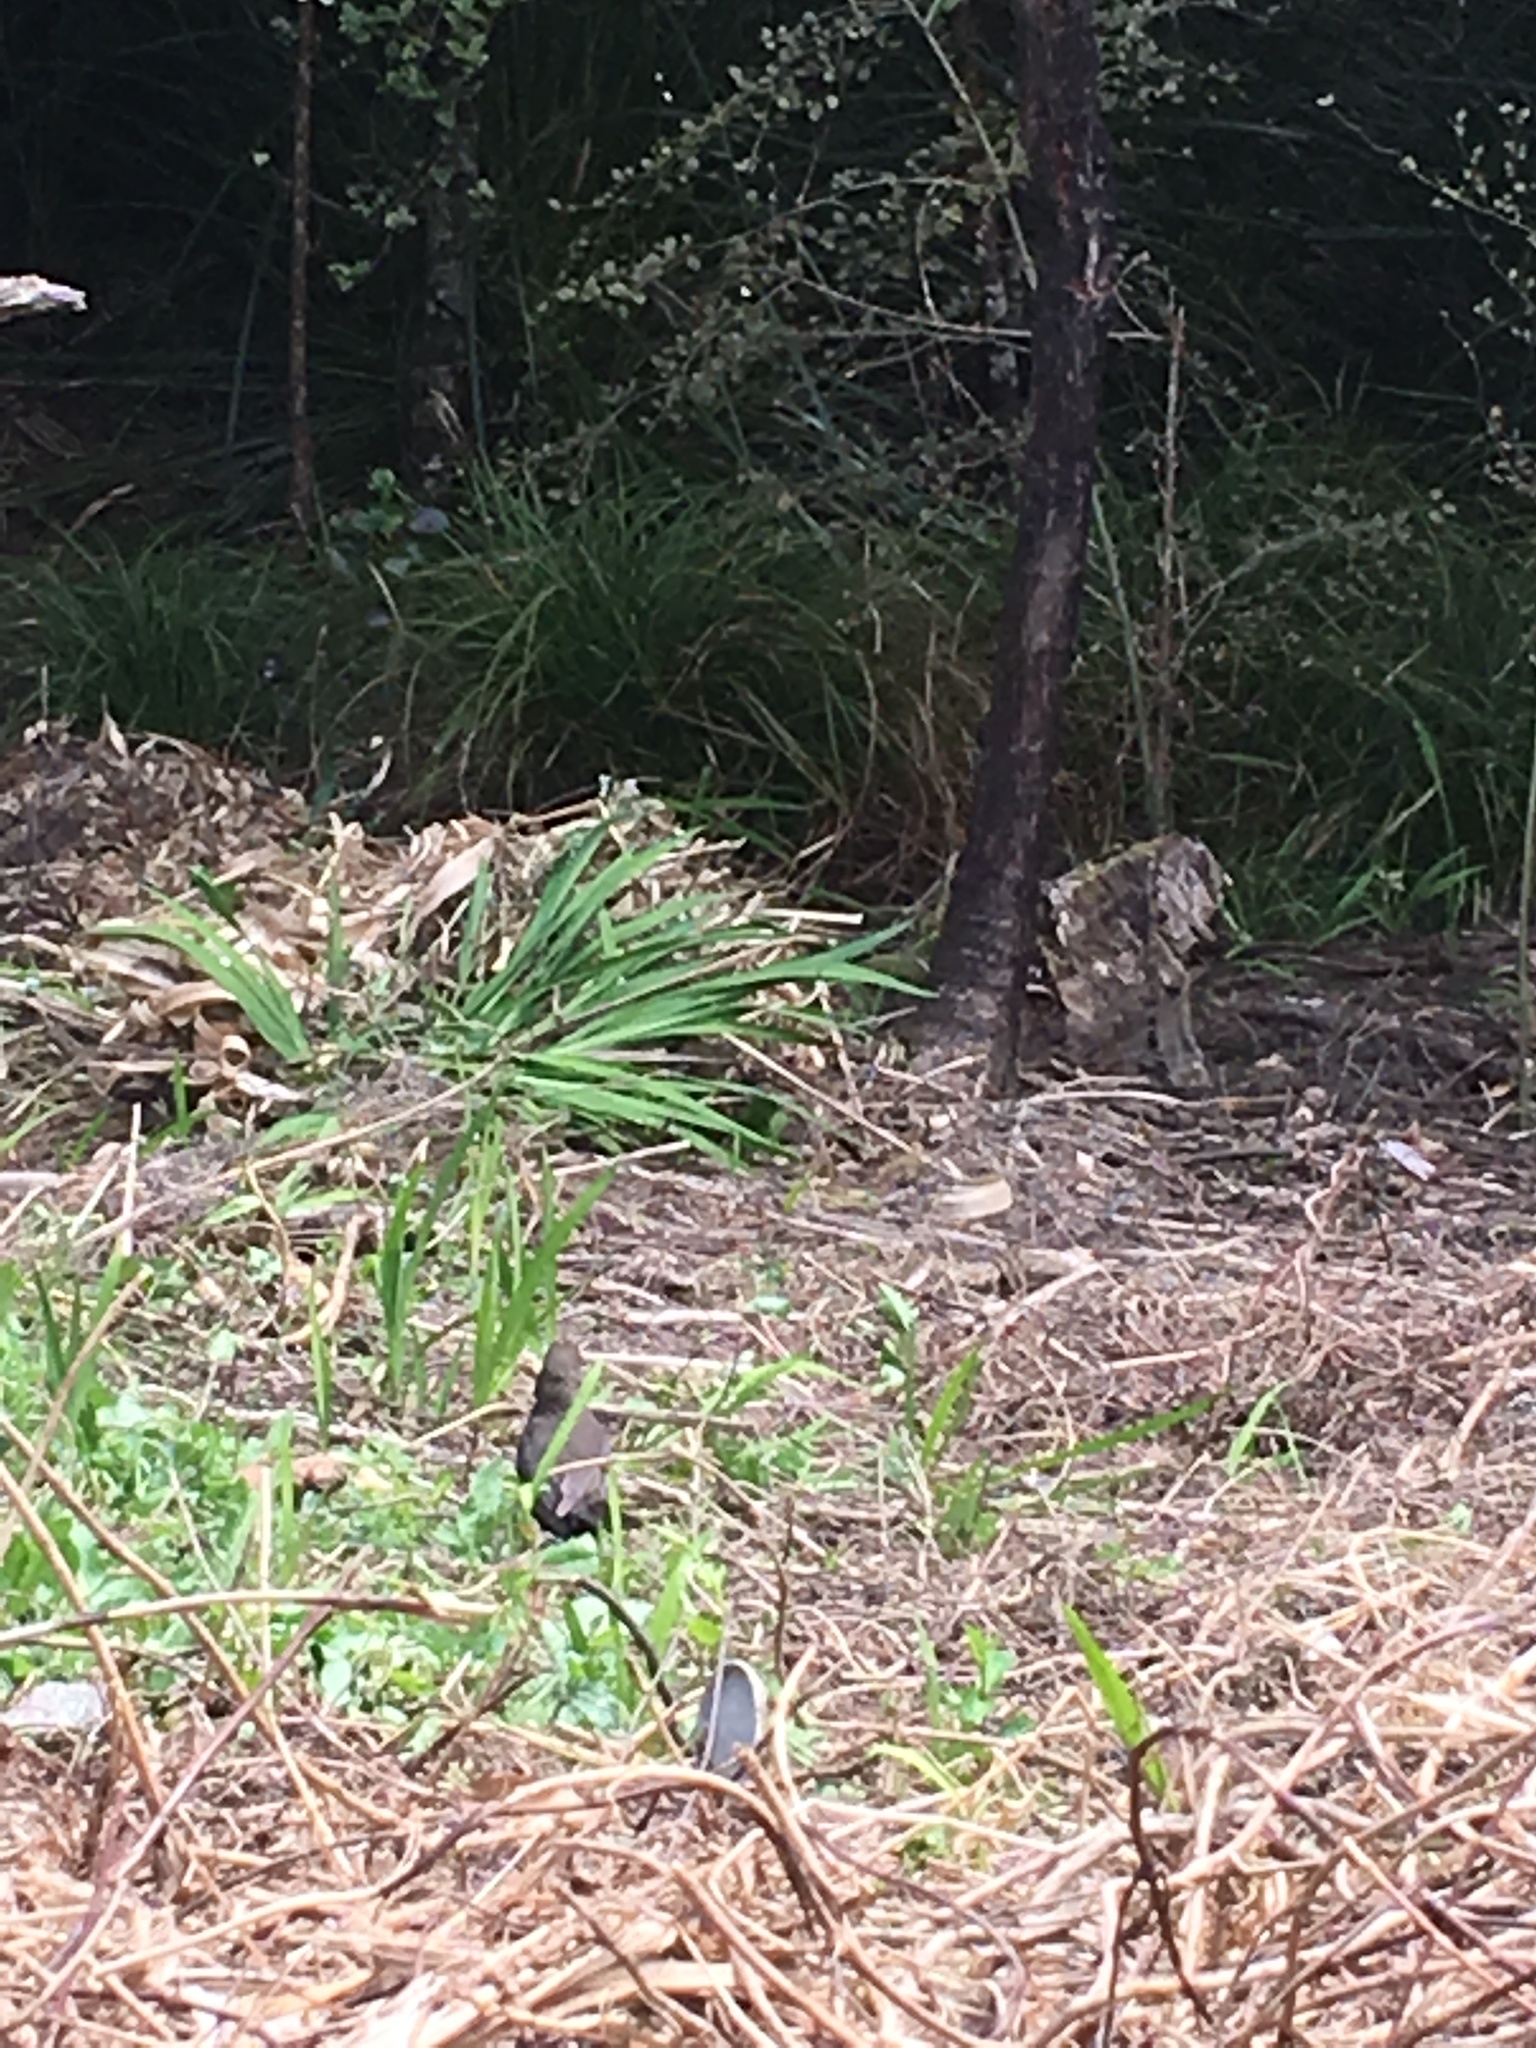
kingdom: Animalia
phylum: Chordata
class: Aves
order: Passeriformes
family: Turdidae
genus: Turdus
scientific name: Turdus merula
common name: Common blackbird
